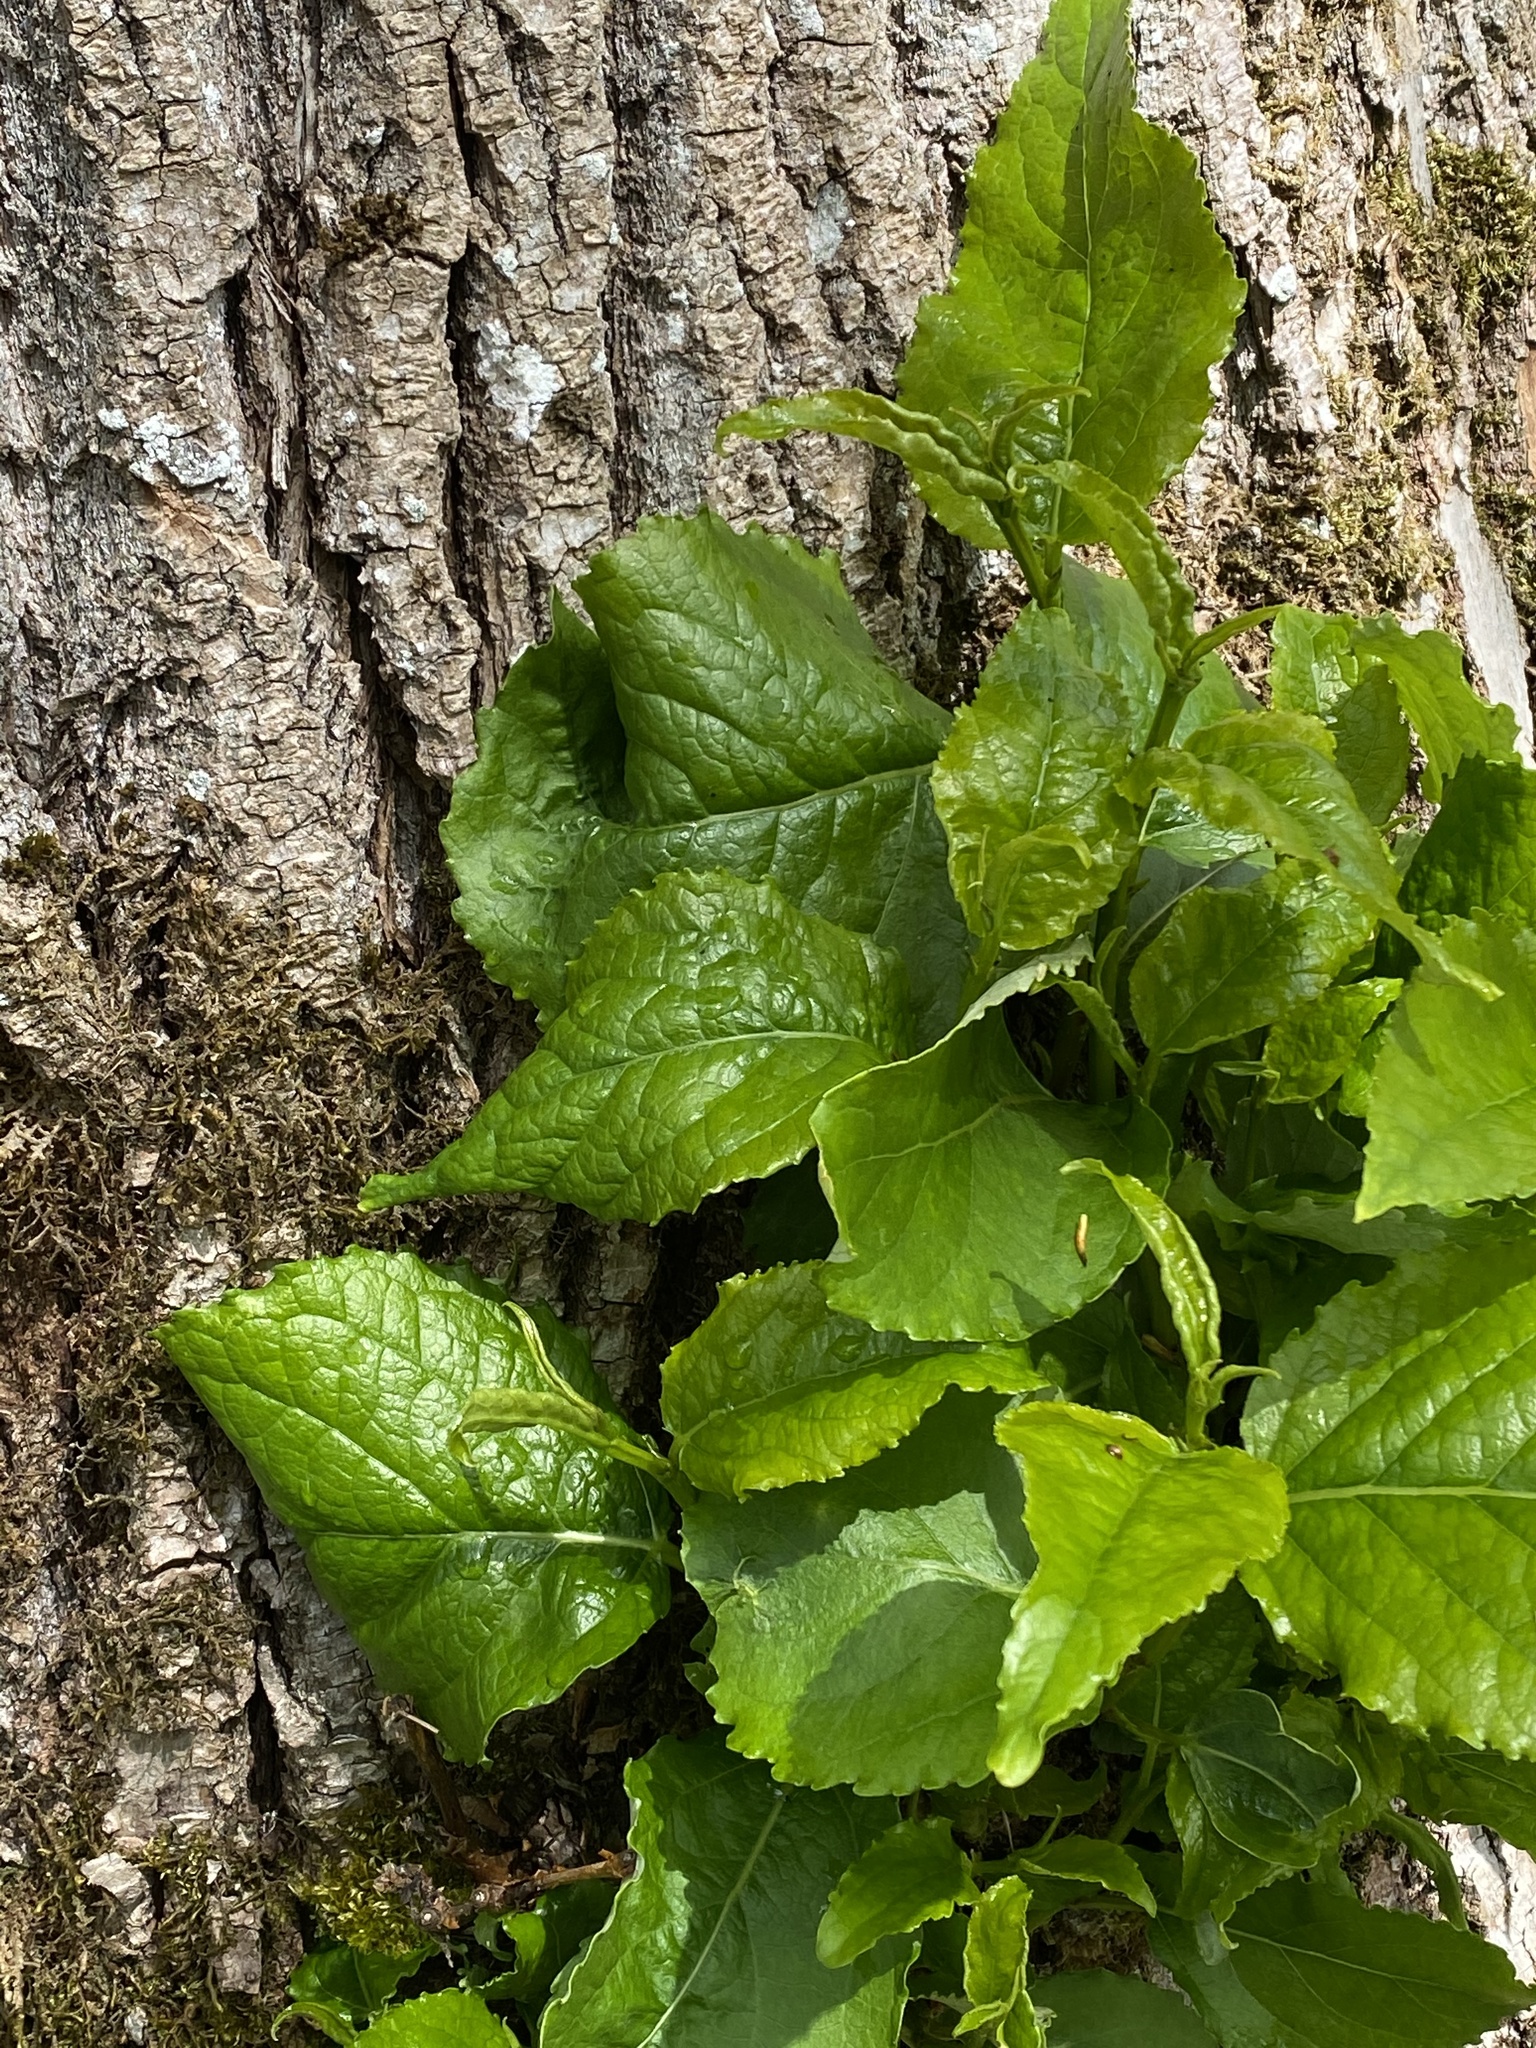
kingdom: Plantae
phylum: Tracheophyta
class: Magnoliopsida
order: Malpighiales
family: Salicaceae
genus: Populus
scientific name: Populus trichocarpa
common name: Black cottonwood
